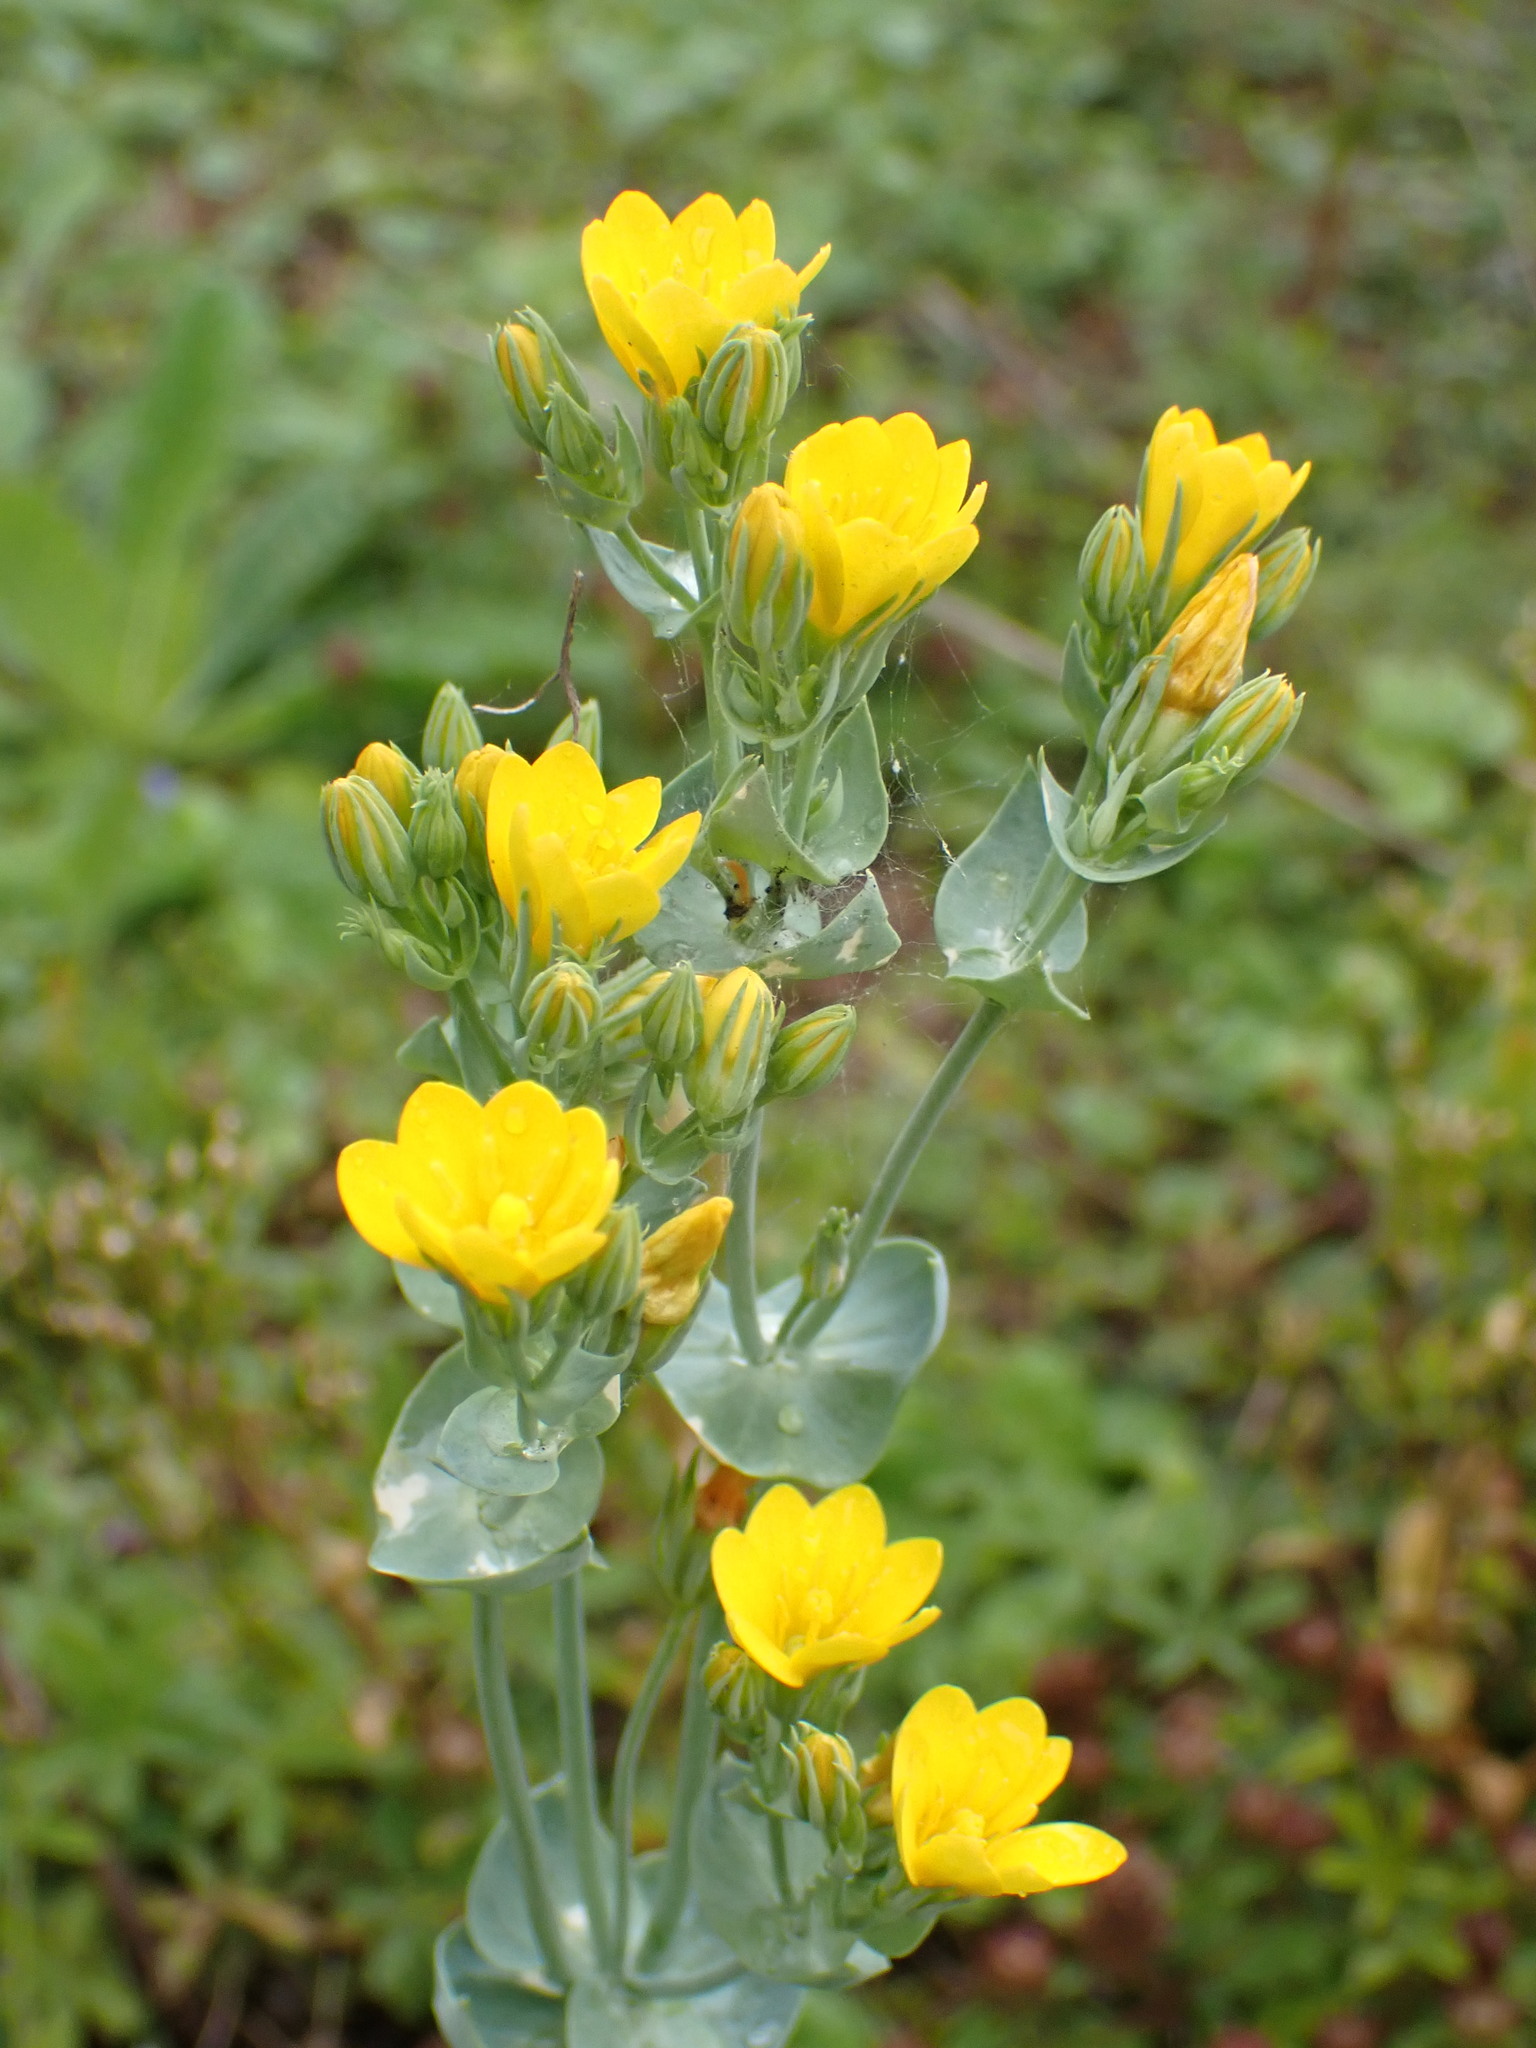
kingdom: Plantae
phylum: Tracheophyta
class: Magnoliopsida
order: Gentianales
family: Gentianaceae
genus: Blackstonia
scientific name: Blackstonia perfoliata
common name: Yellow-wort
